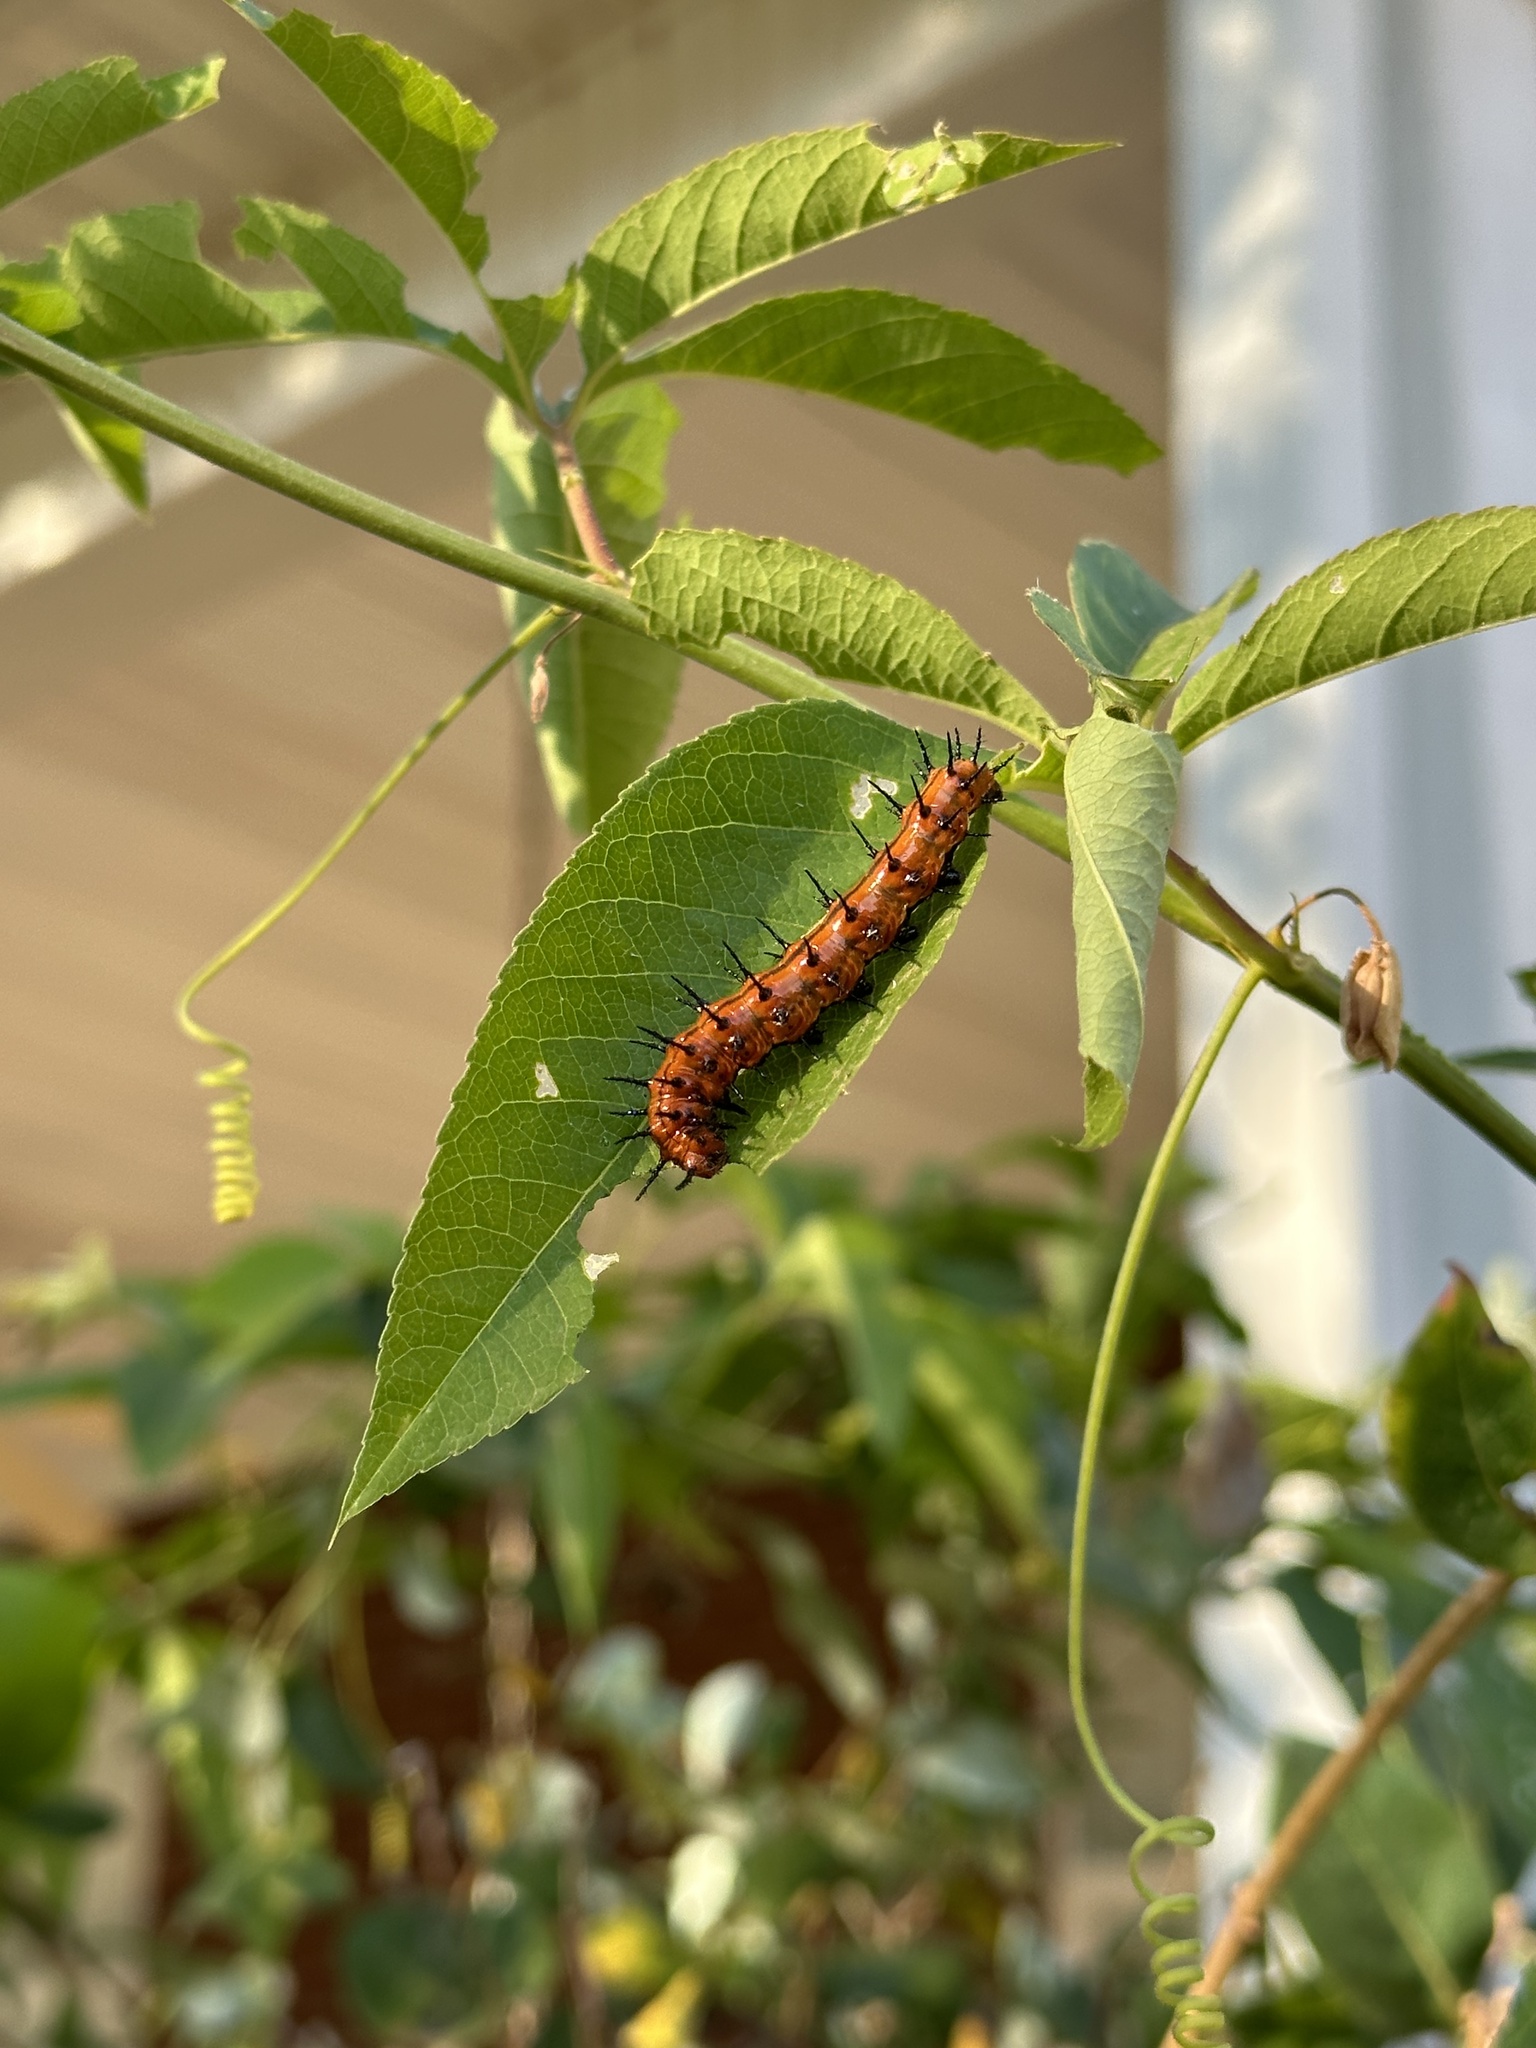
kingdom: Animalia
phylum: Arthropoda
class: Insecta
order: Lepidoptera
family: Nymphalidae
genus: Dione
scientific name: Dione vanillae
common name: Gulf fritillary
